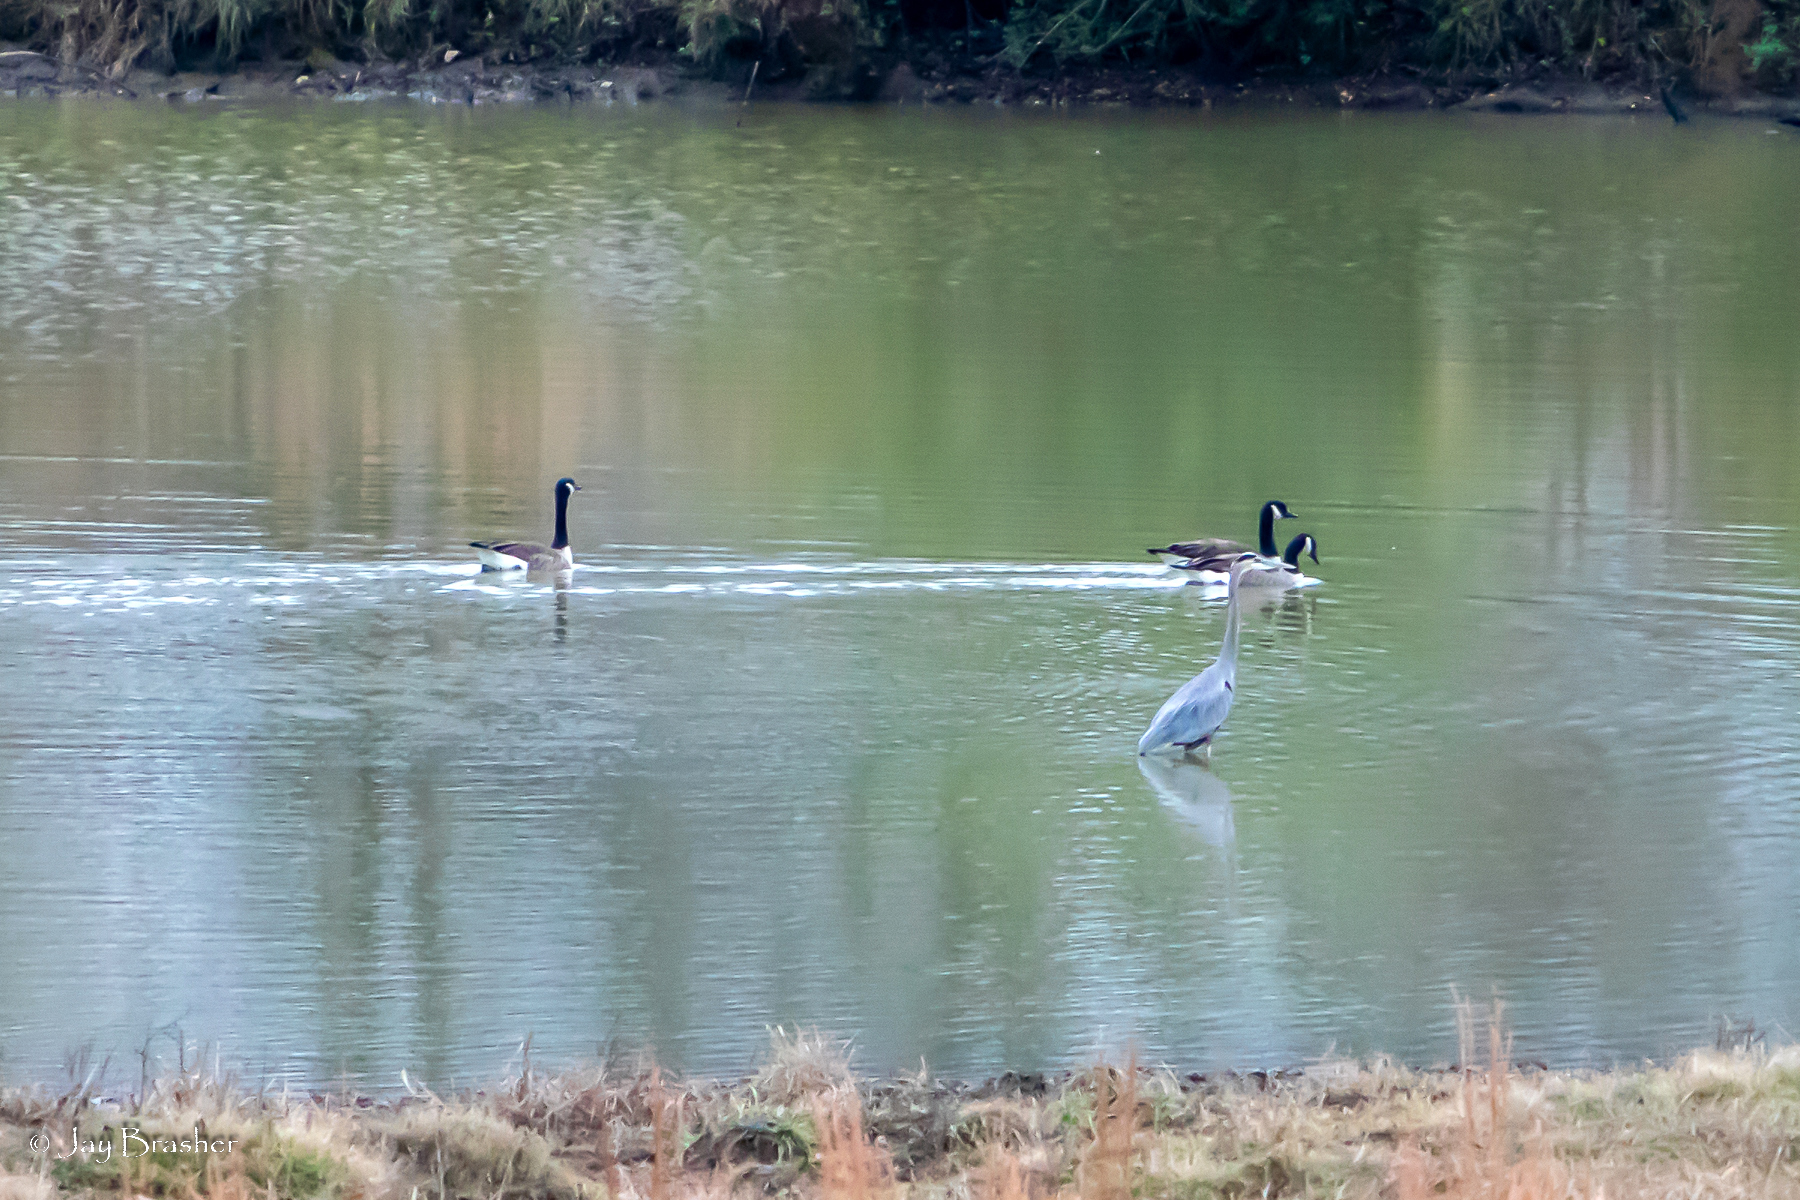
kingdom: Animalia
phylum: Chordata
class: Aves
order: Pelecaniformes
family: Ardeidae
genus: Ardea
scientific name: Ardea herodias
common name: Great blue heron
